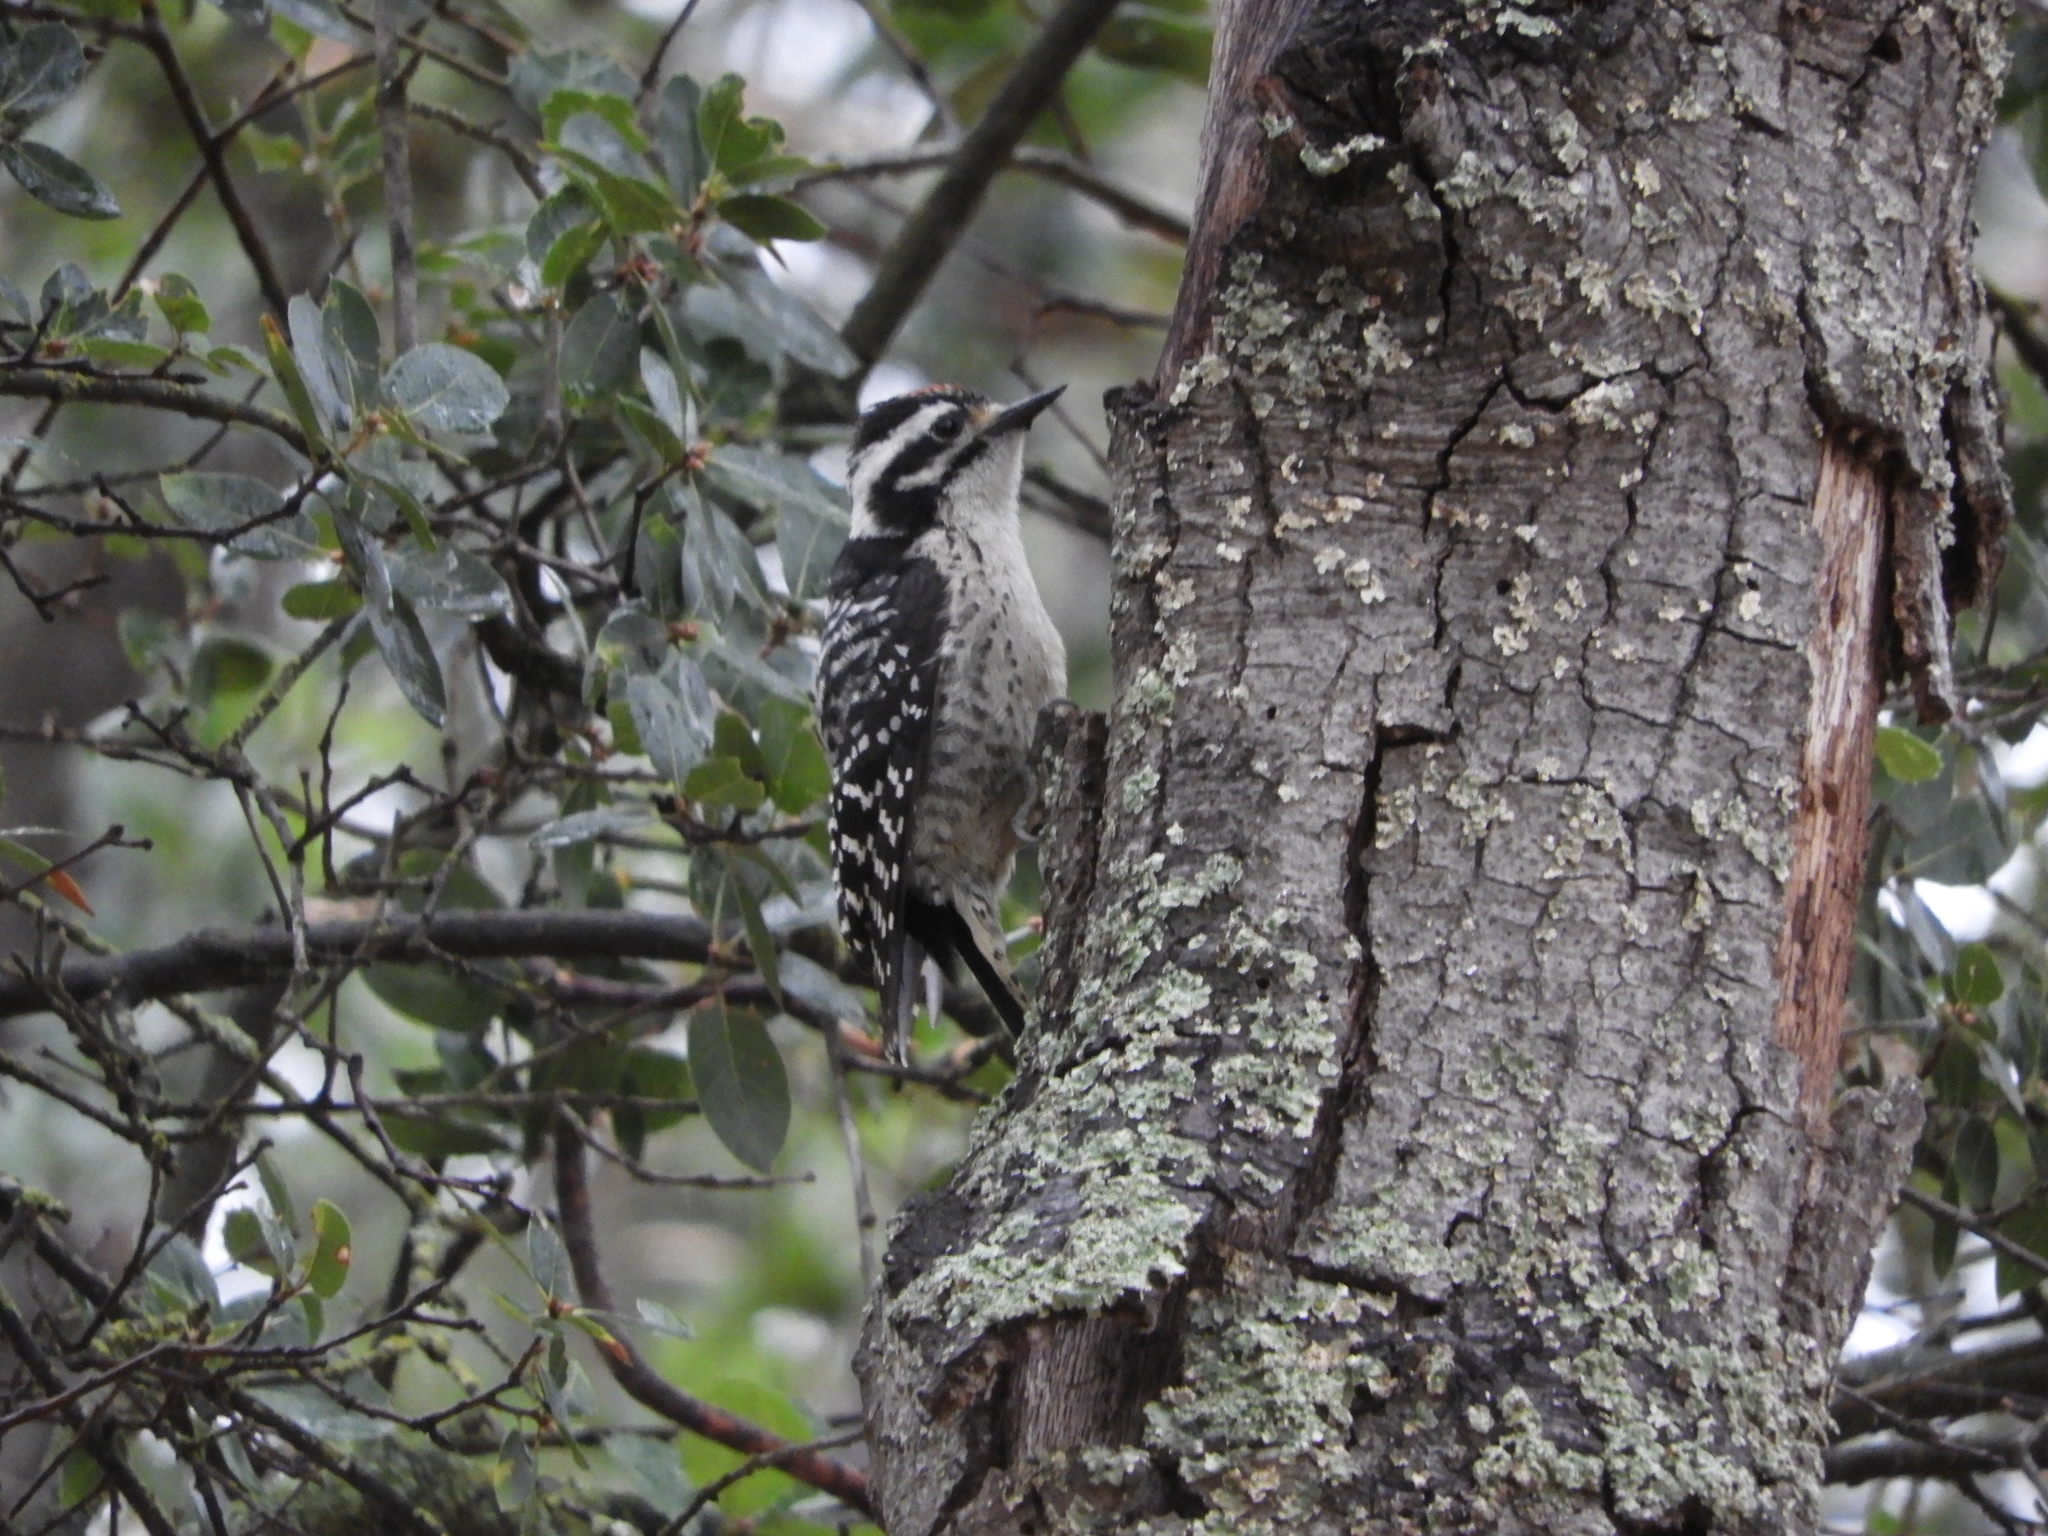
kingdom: Animalia
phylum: Chordata
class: Aves
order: Piciformes
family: Picidae
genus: Dryobates
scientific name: Dryobates nuttallii
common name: Nuttall's woodpecker
